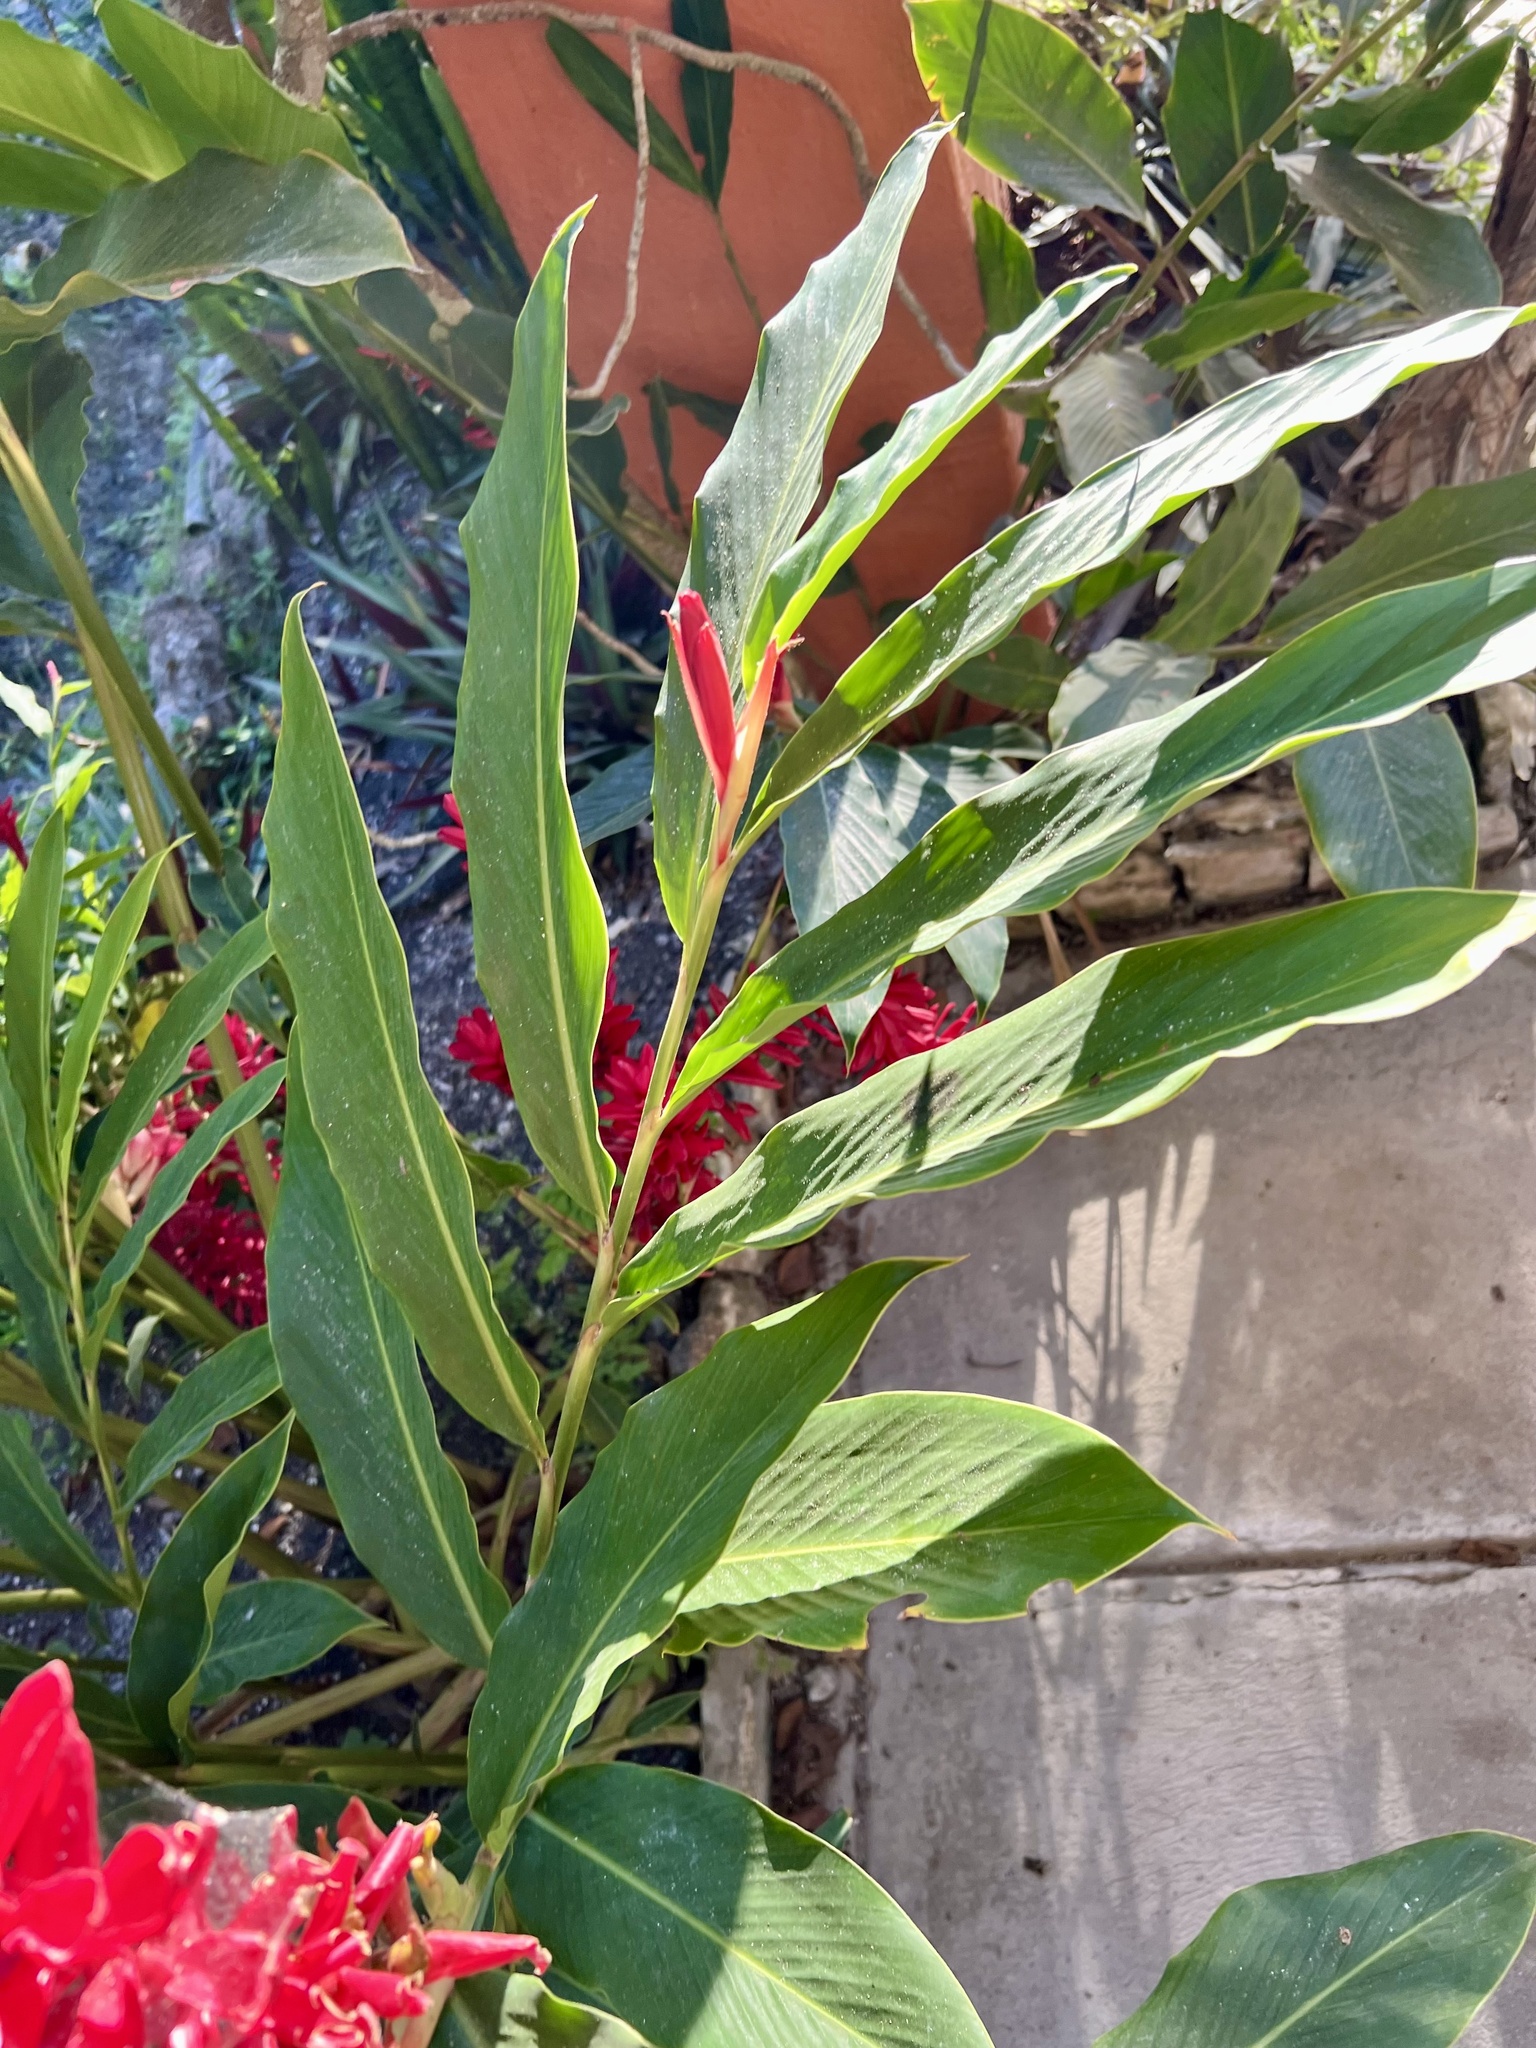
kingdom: Plantae
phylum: Tracheophyta
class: Liliopsida
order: Zingiberales
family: Zingiberaceae
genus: Alpinia
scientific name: Alpinia purpurata
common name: Red ginger
